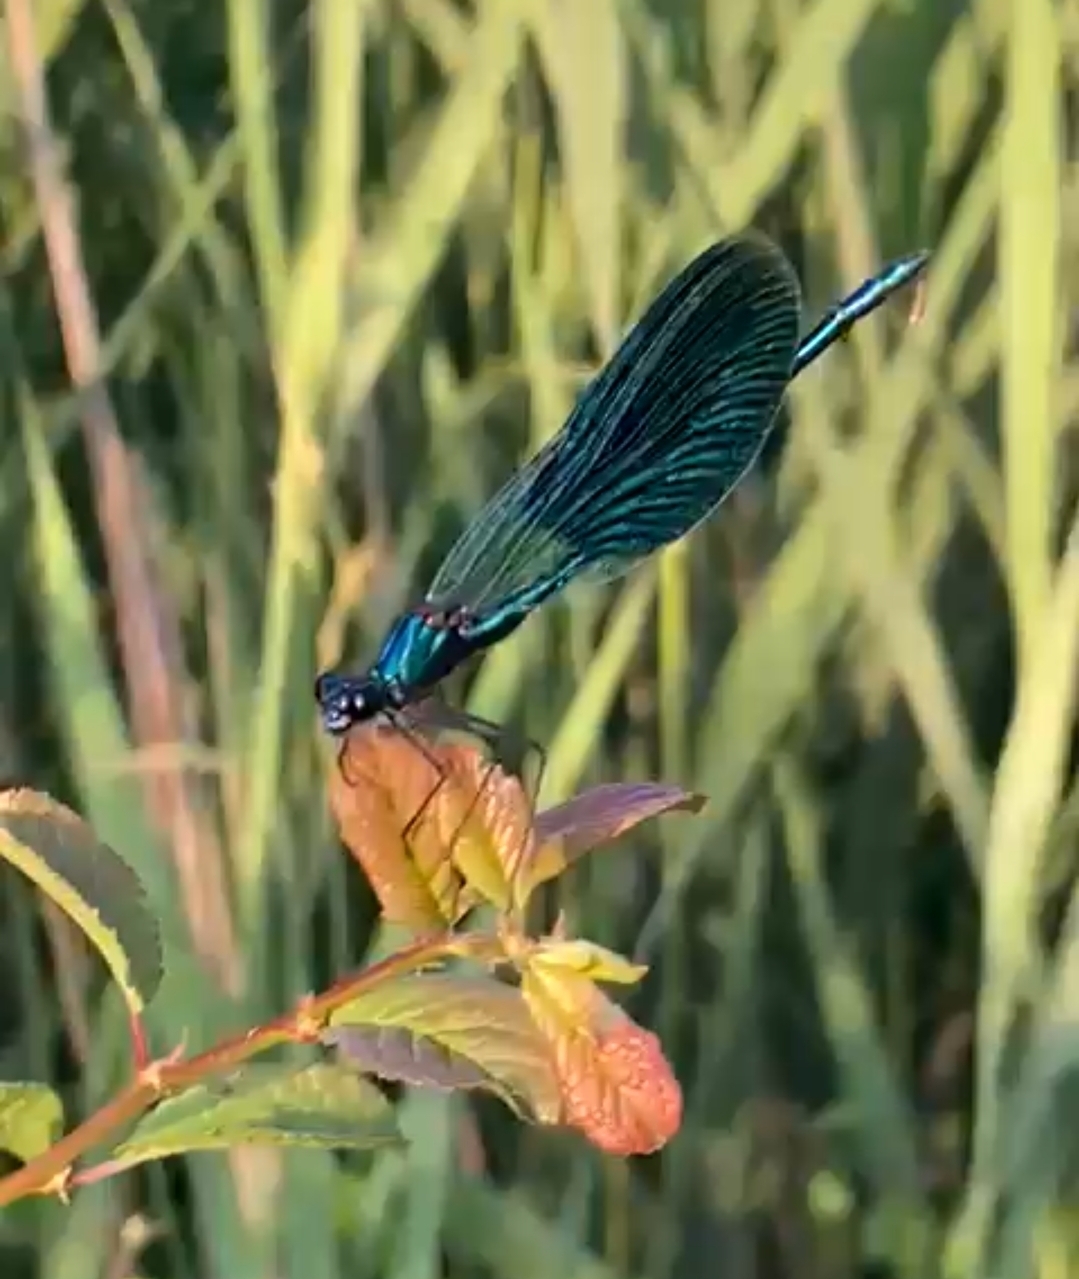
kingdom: Animalia
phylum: Arthropoda
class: Insecta
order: Odonata
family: Calopterygidae
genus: Calopteryx
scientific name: Calopteryx splendens
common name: Banded demoiselle
